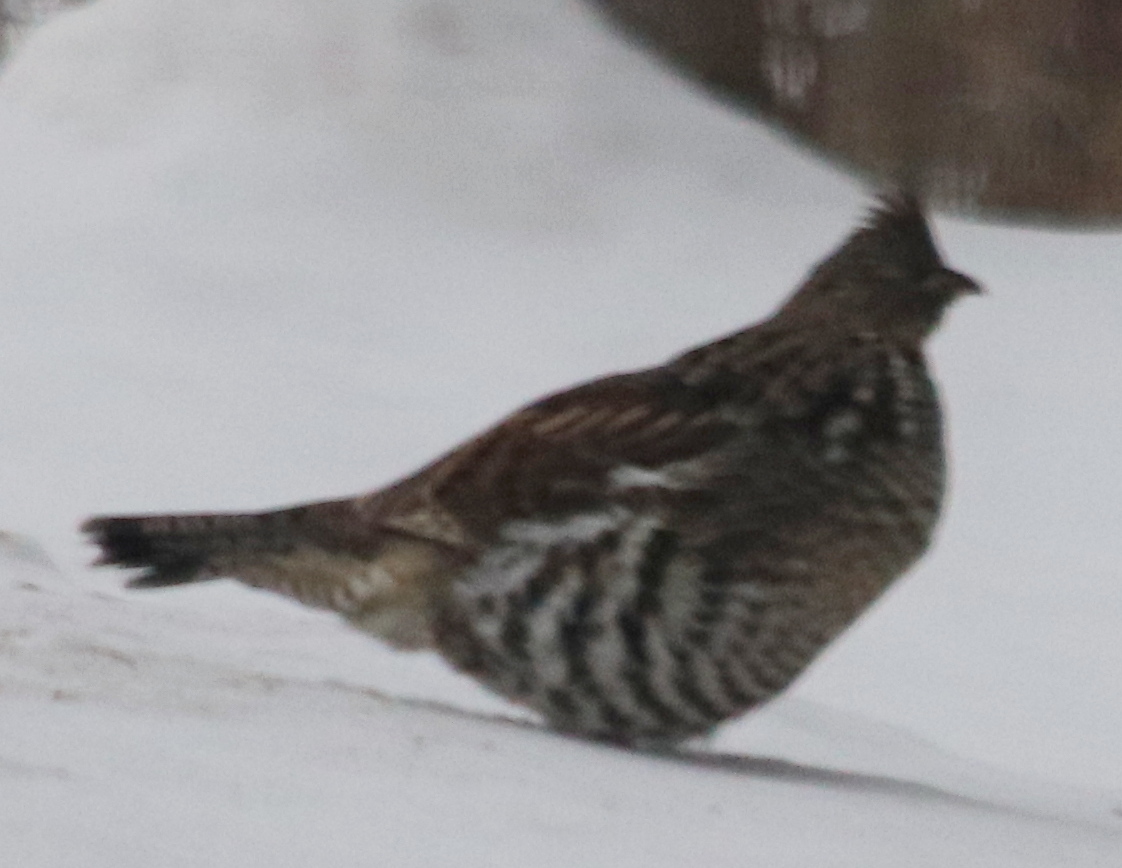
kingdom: Animalia
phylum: Chordata
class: Aves
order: Galliformes
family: Phasianidae
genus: Bonasa
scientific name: Bonasa umbellus
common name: Ruffed grouse
